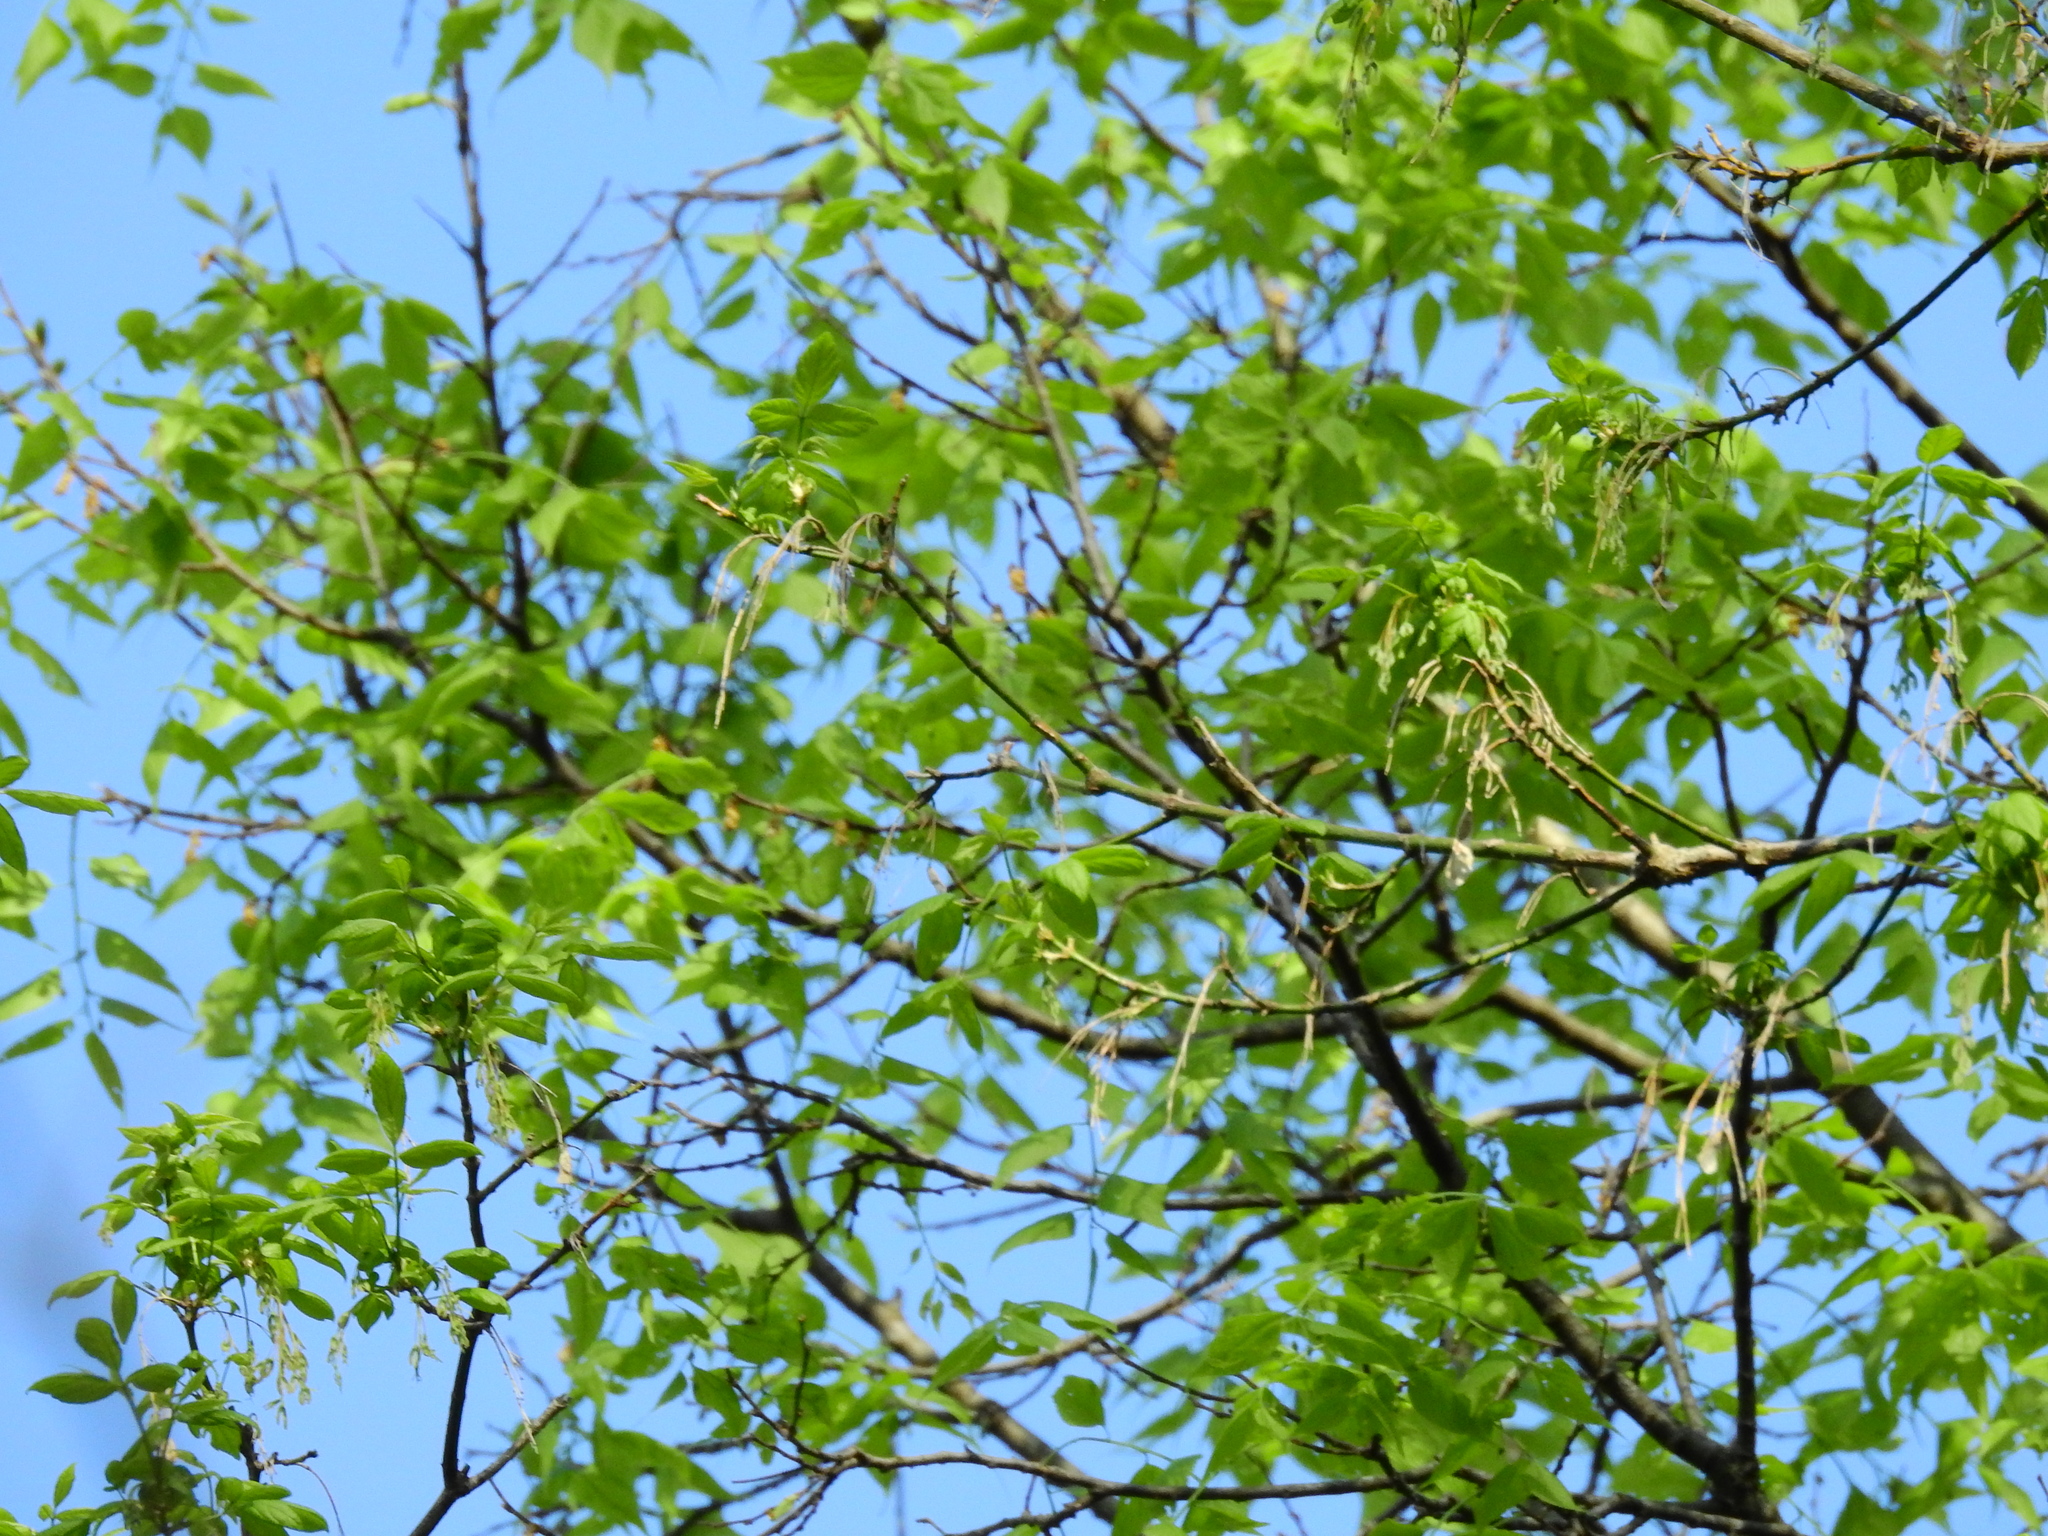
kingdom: Plantae
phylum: Tracheophyta
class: Magnoliopsida
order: Sapindales
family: Sapindaceae
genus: Acer
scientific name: Acer negundo
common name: Ashleaf maple
